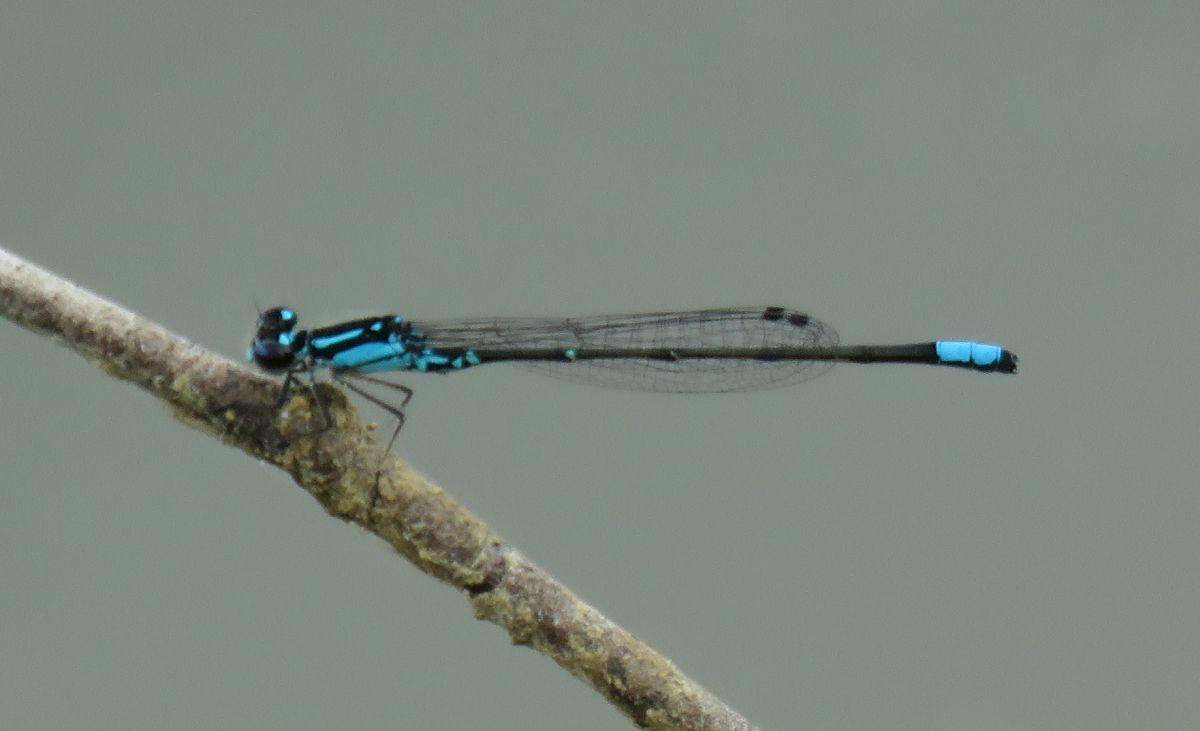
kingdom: Animalia
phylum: Arthropoda
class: Insecta
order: Odonata
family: Coenagrionidae
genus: Enallagma
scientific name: Enallagma geminatum
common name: Skimming bluet
